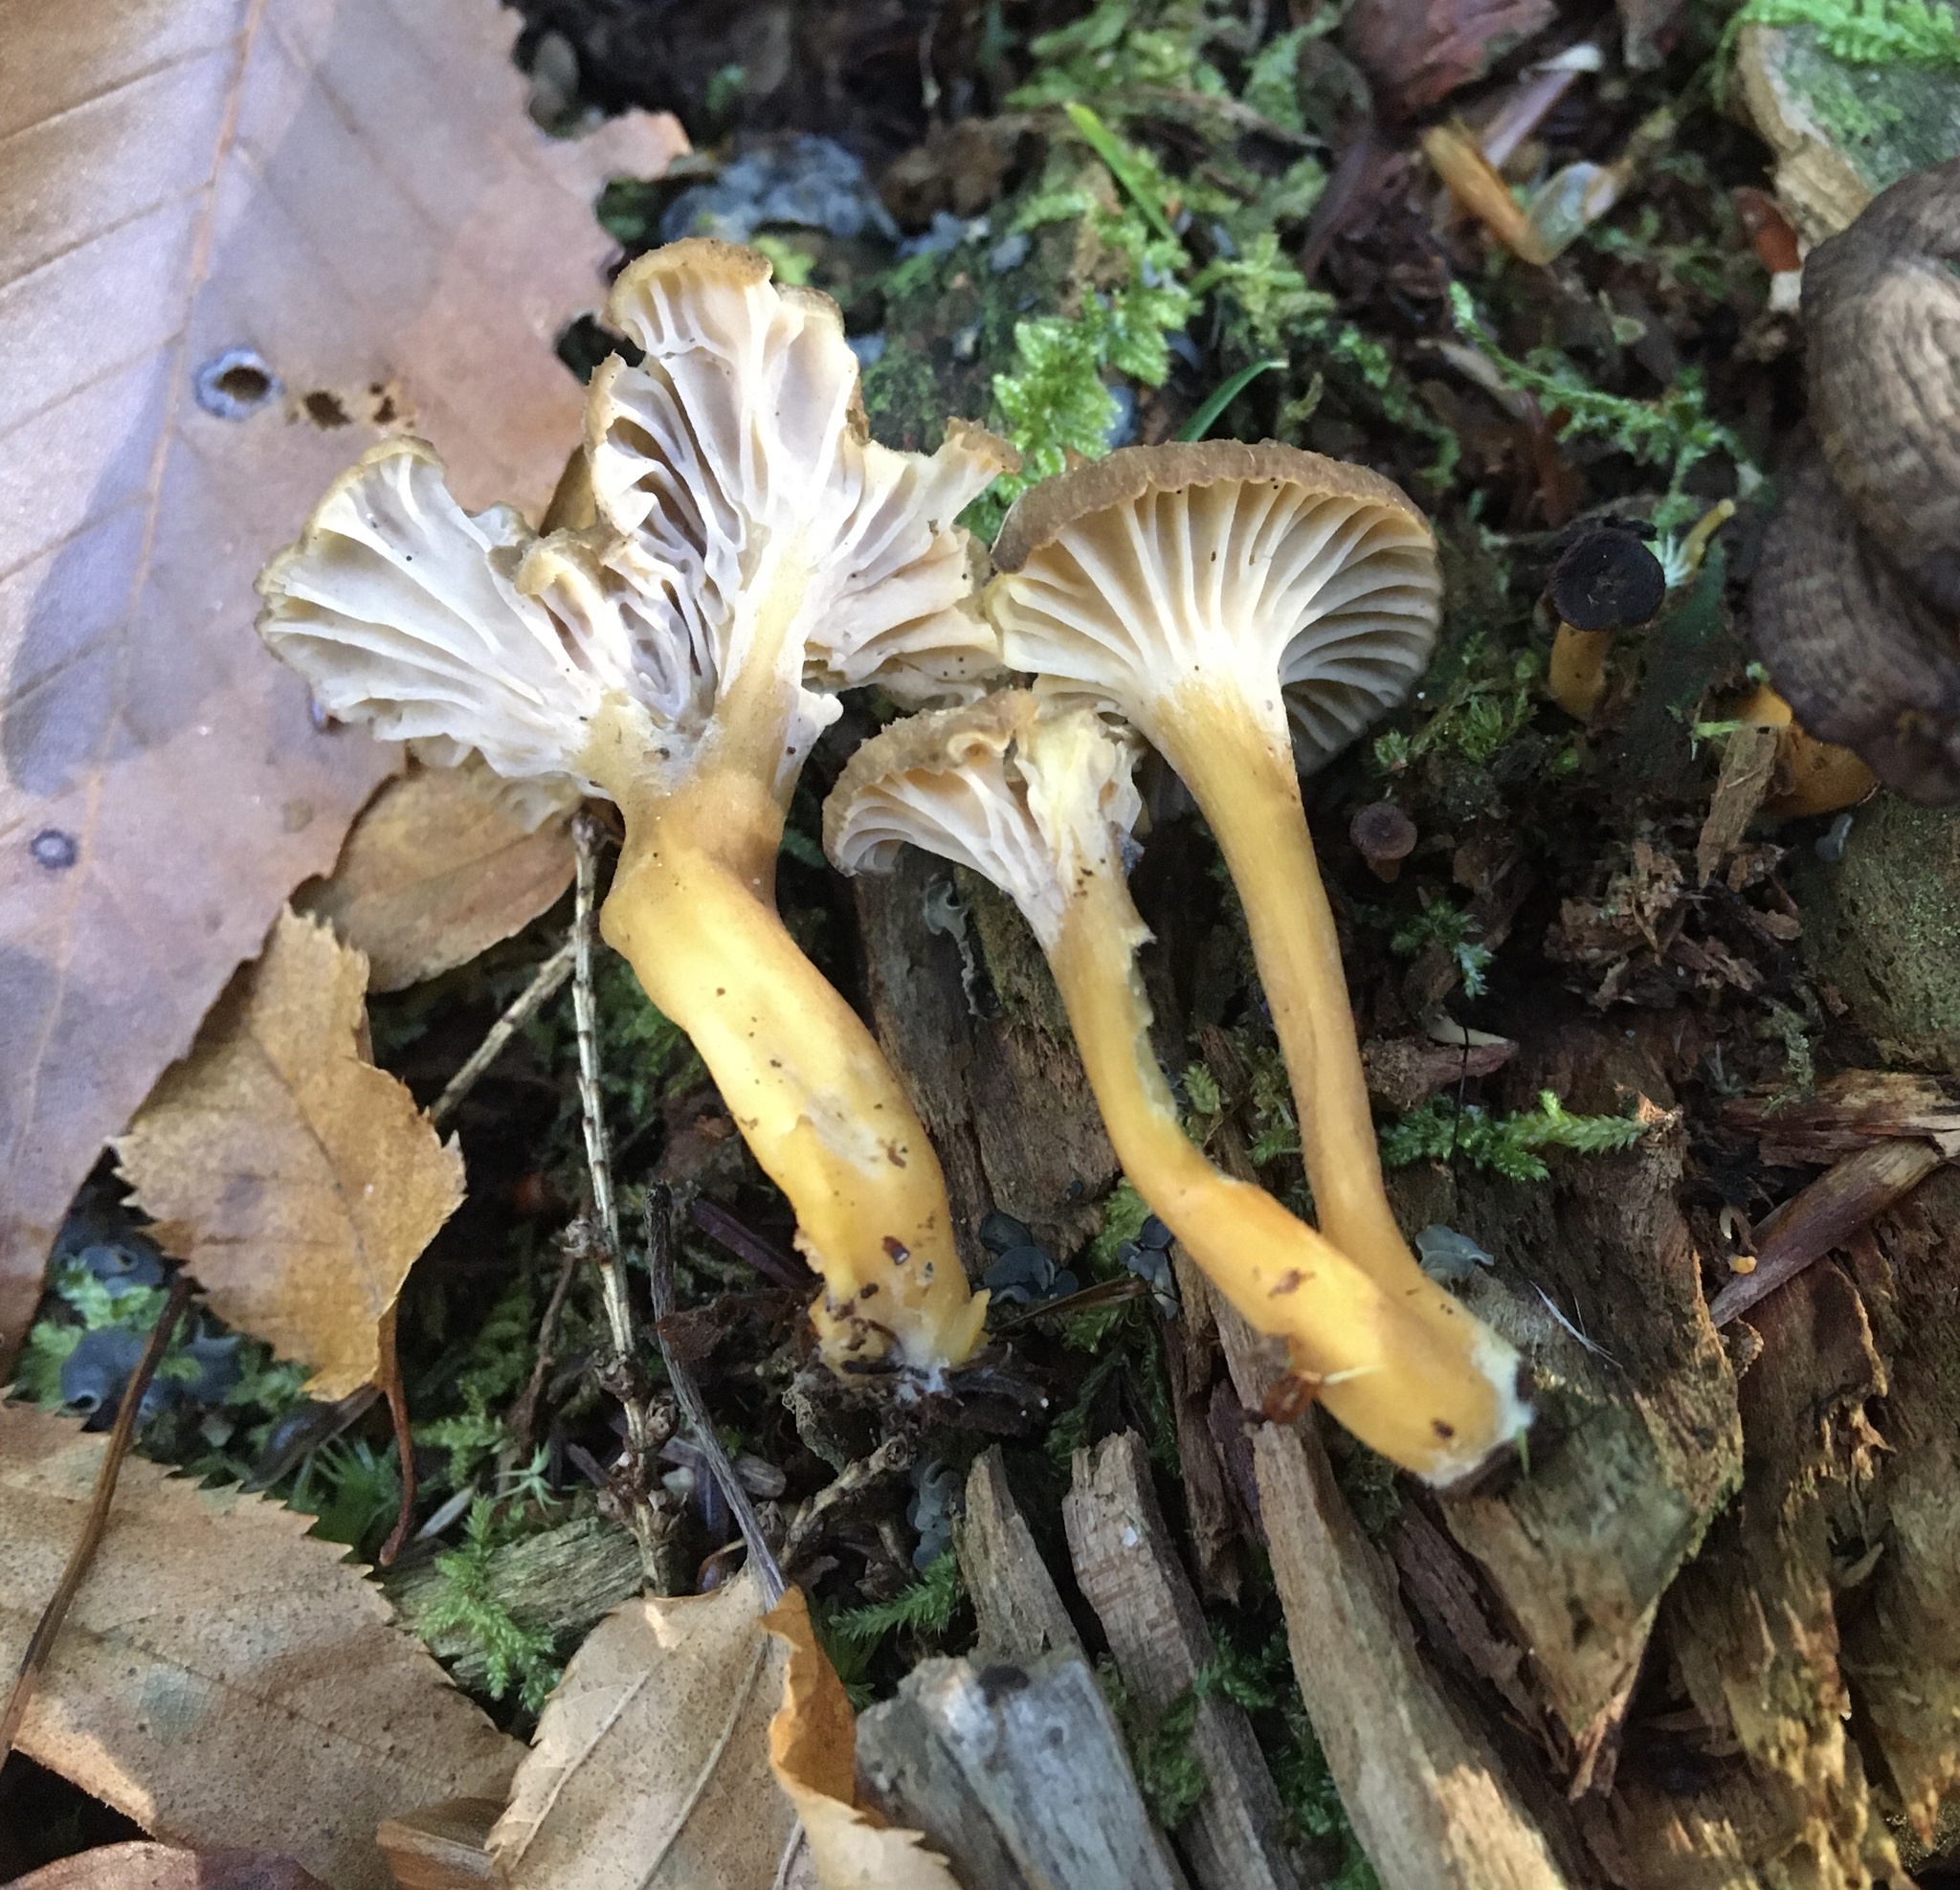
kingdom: Fungi
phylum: Basidiomycota
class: Agaricomycetes
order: Cantharellales
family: Hydnaceae
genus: Craterellus
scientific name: Craterellus tubaeformis
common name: Yellowfoot
